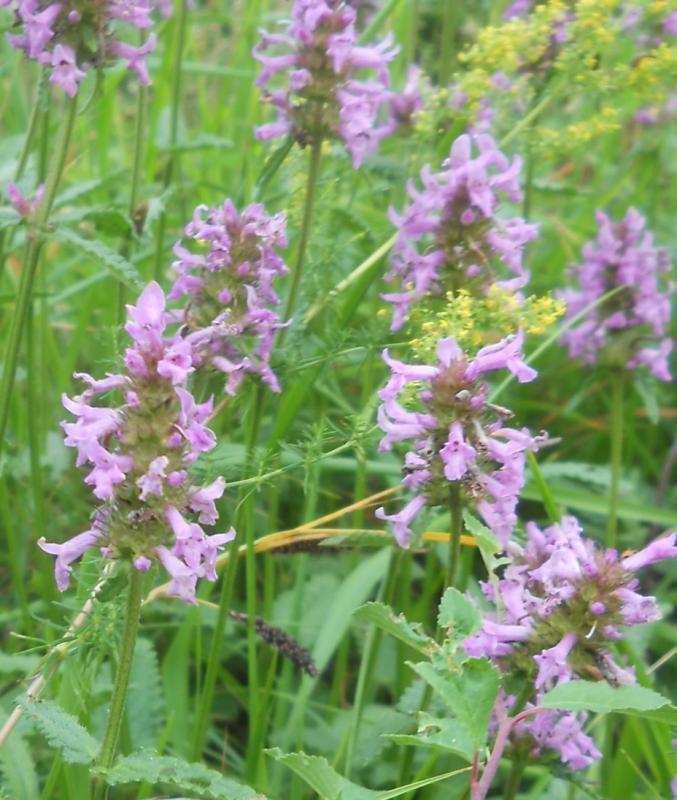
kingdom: Plantae
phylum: Tracheophyta
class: Magnoliopsida
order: Lamiales
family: Lamiaceae
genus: Betonica
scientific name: Betonica officinalis
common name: Bishop's-wort
